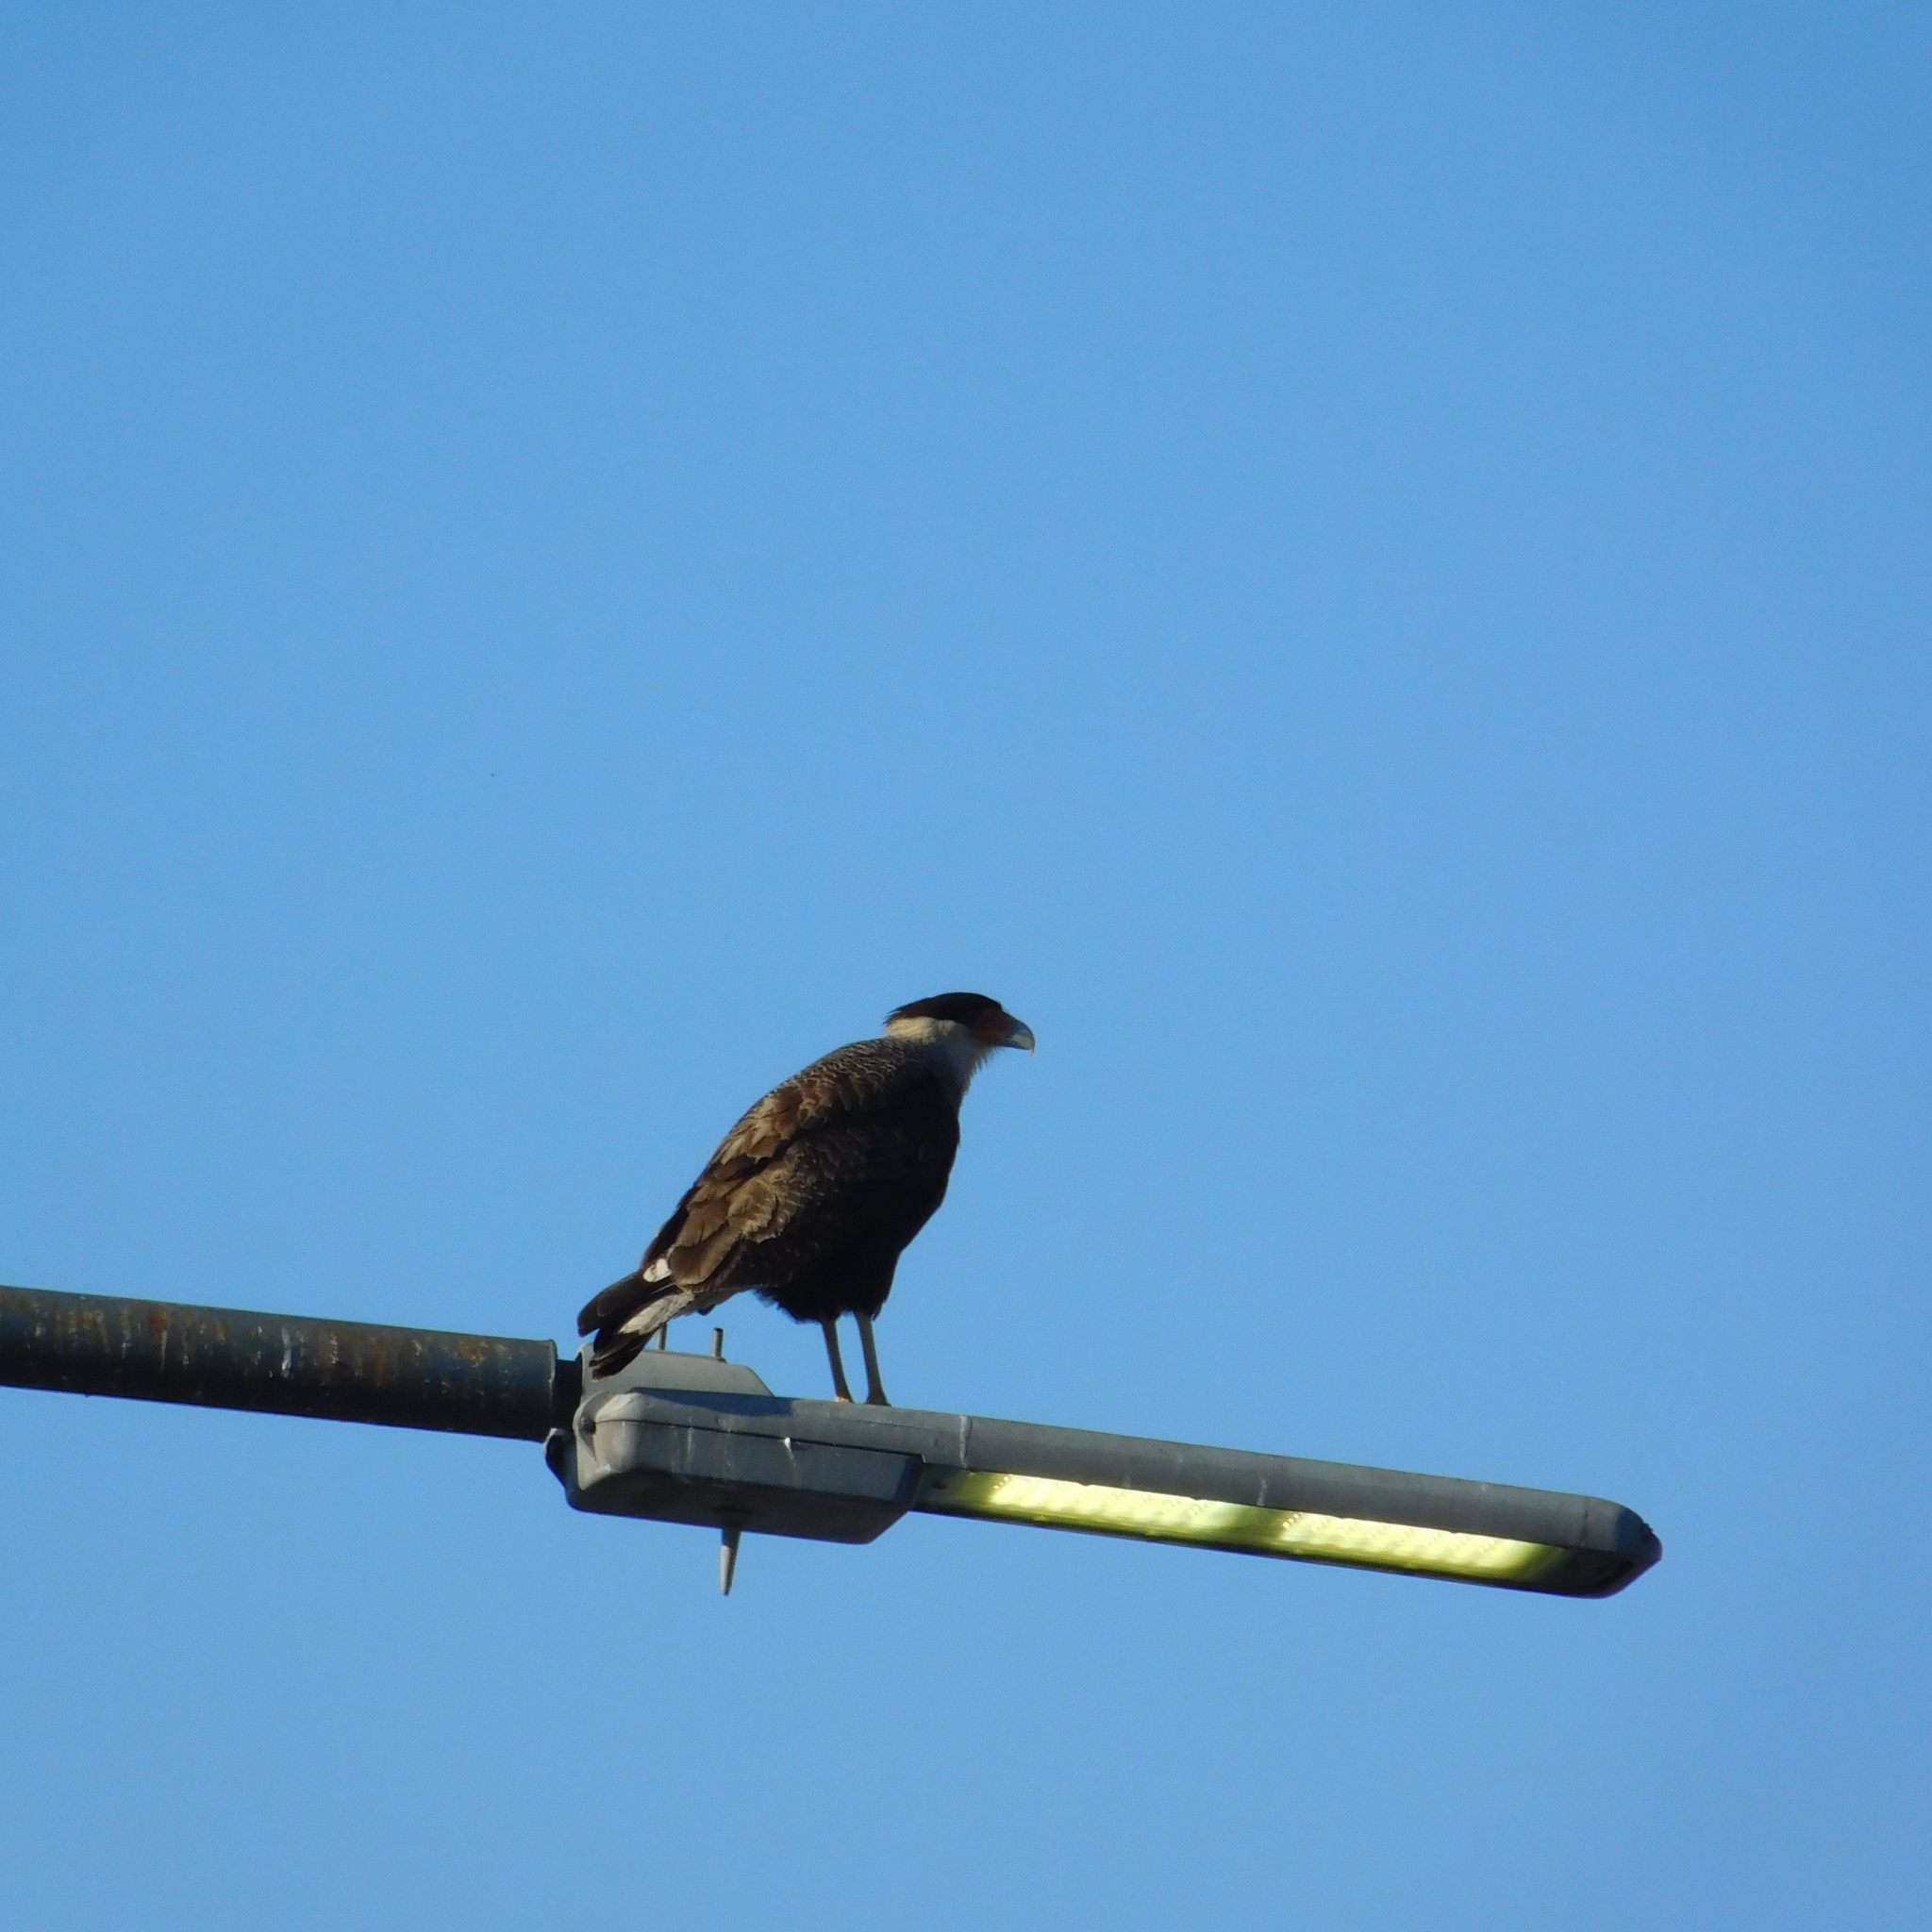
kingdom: Animalia
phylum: Chordata
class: Aves
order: Falconiformes
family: Falconidae
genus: Caracara
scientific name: Caracara plancus
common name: Southern caracara
